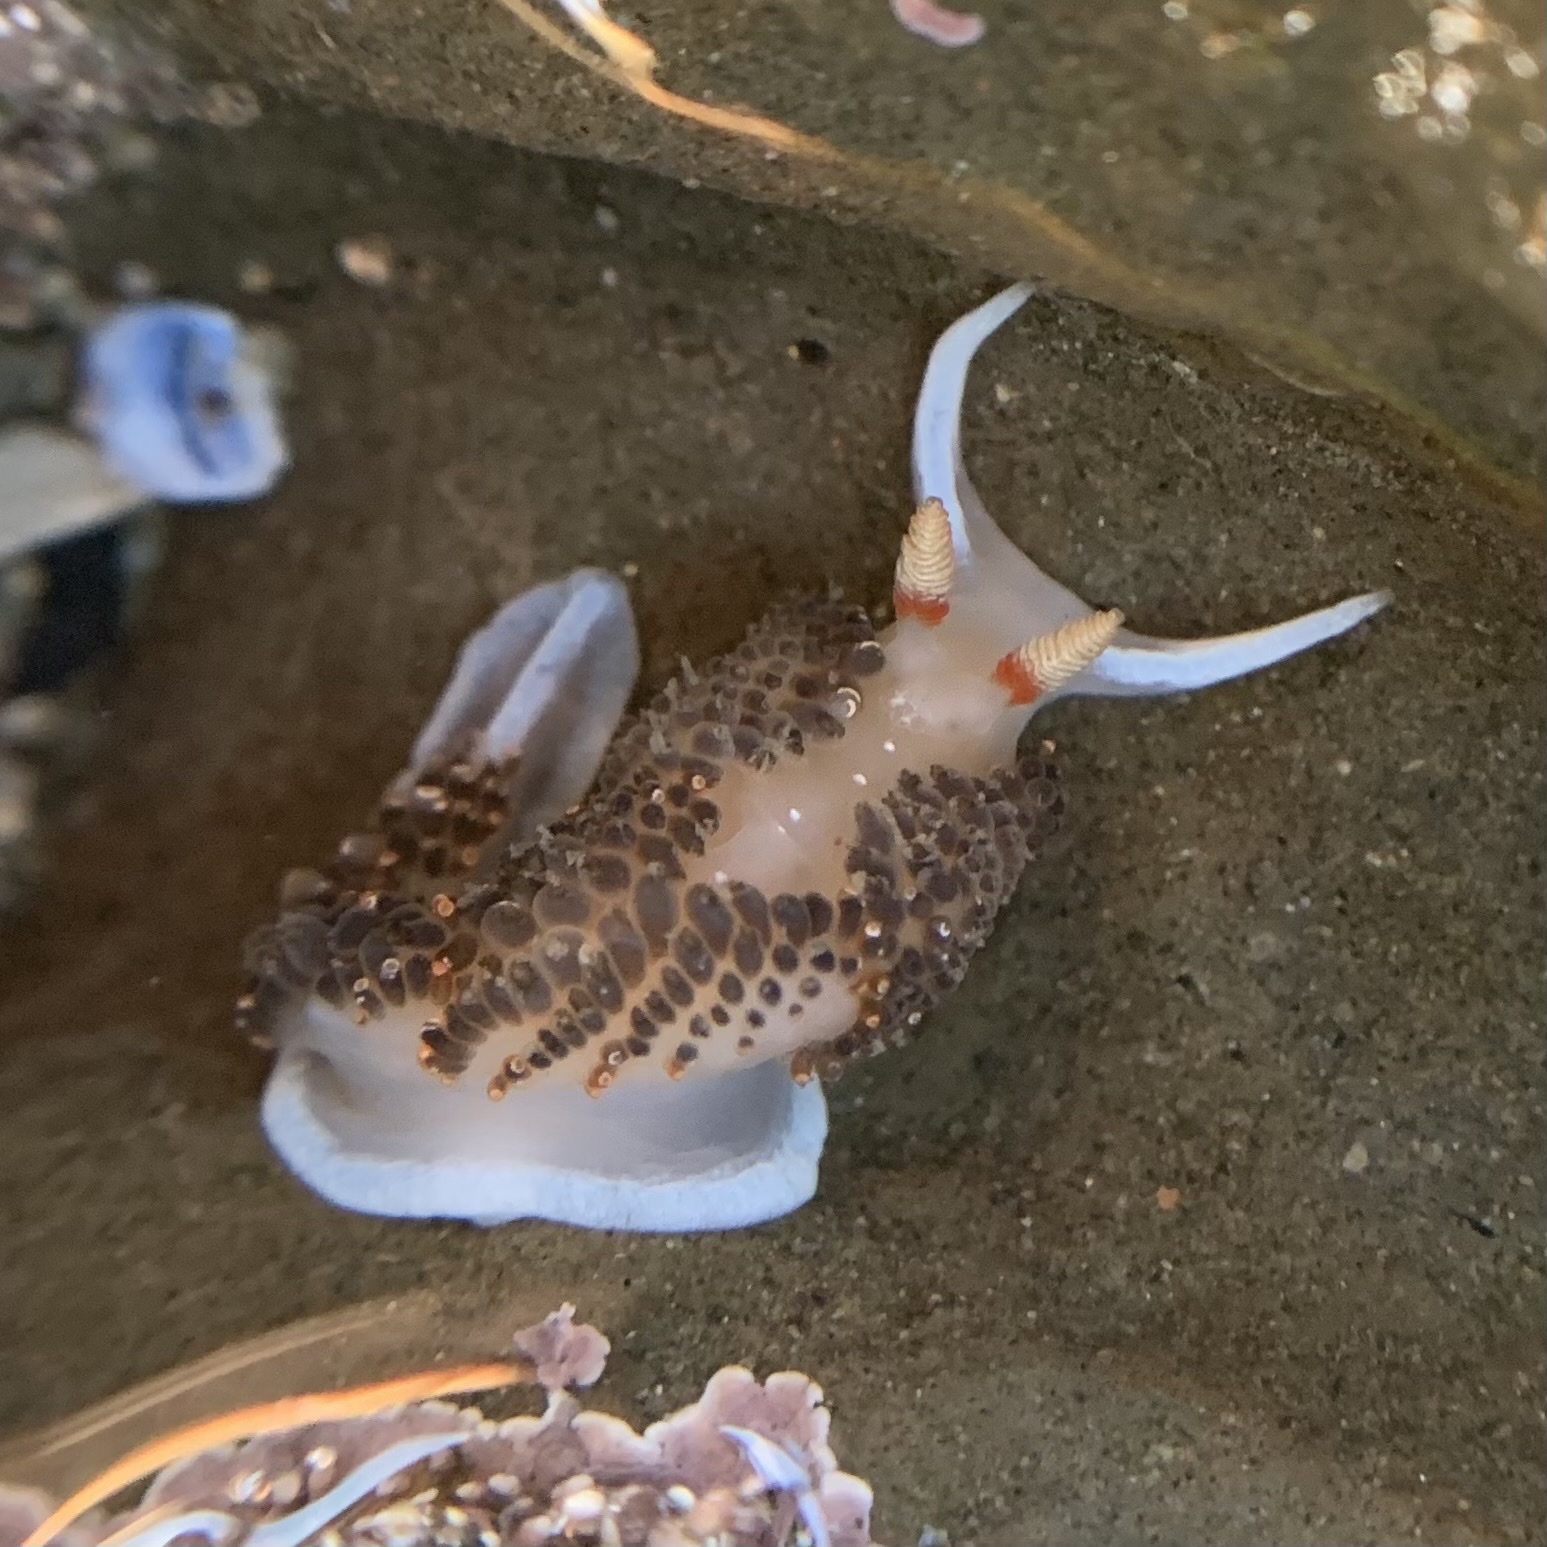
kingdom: Animalia
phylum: Mollusca
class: Gastropoda
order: Nudibranchia
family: Facelinidae
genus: Phidiana
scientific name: Phidiana hiltoni
